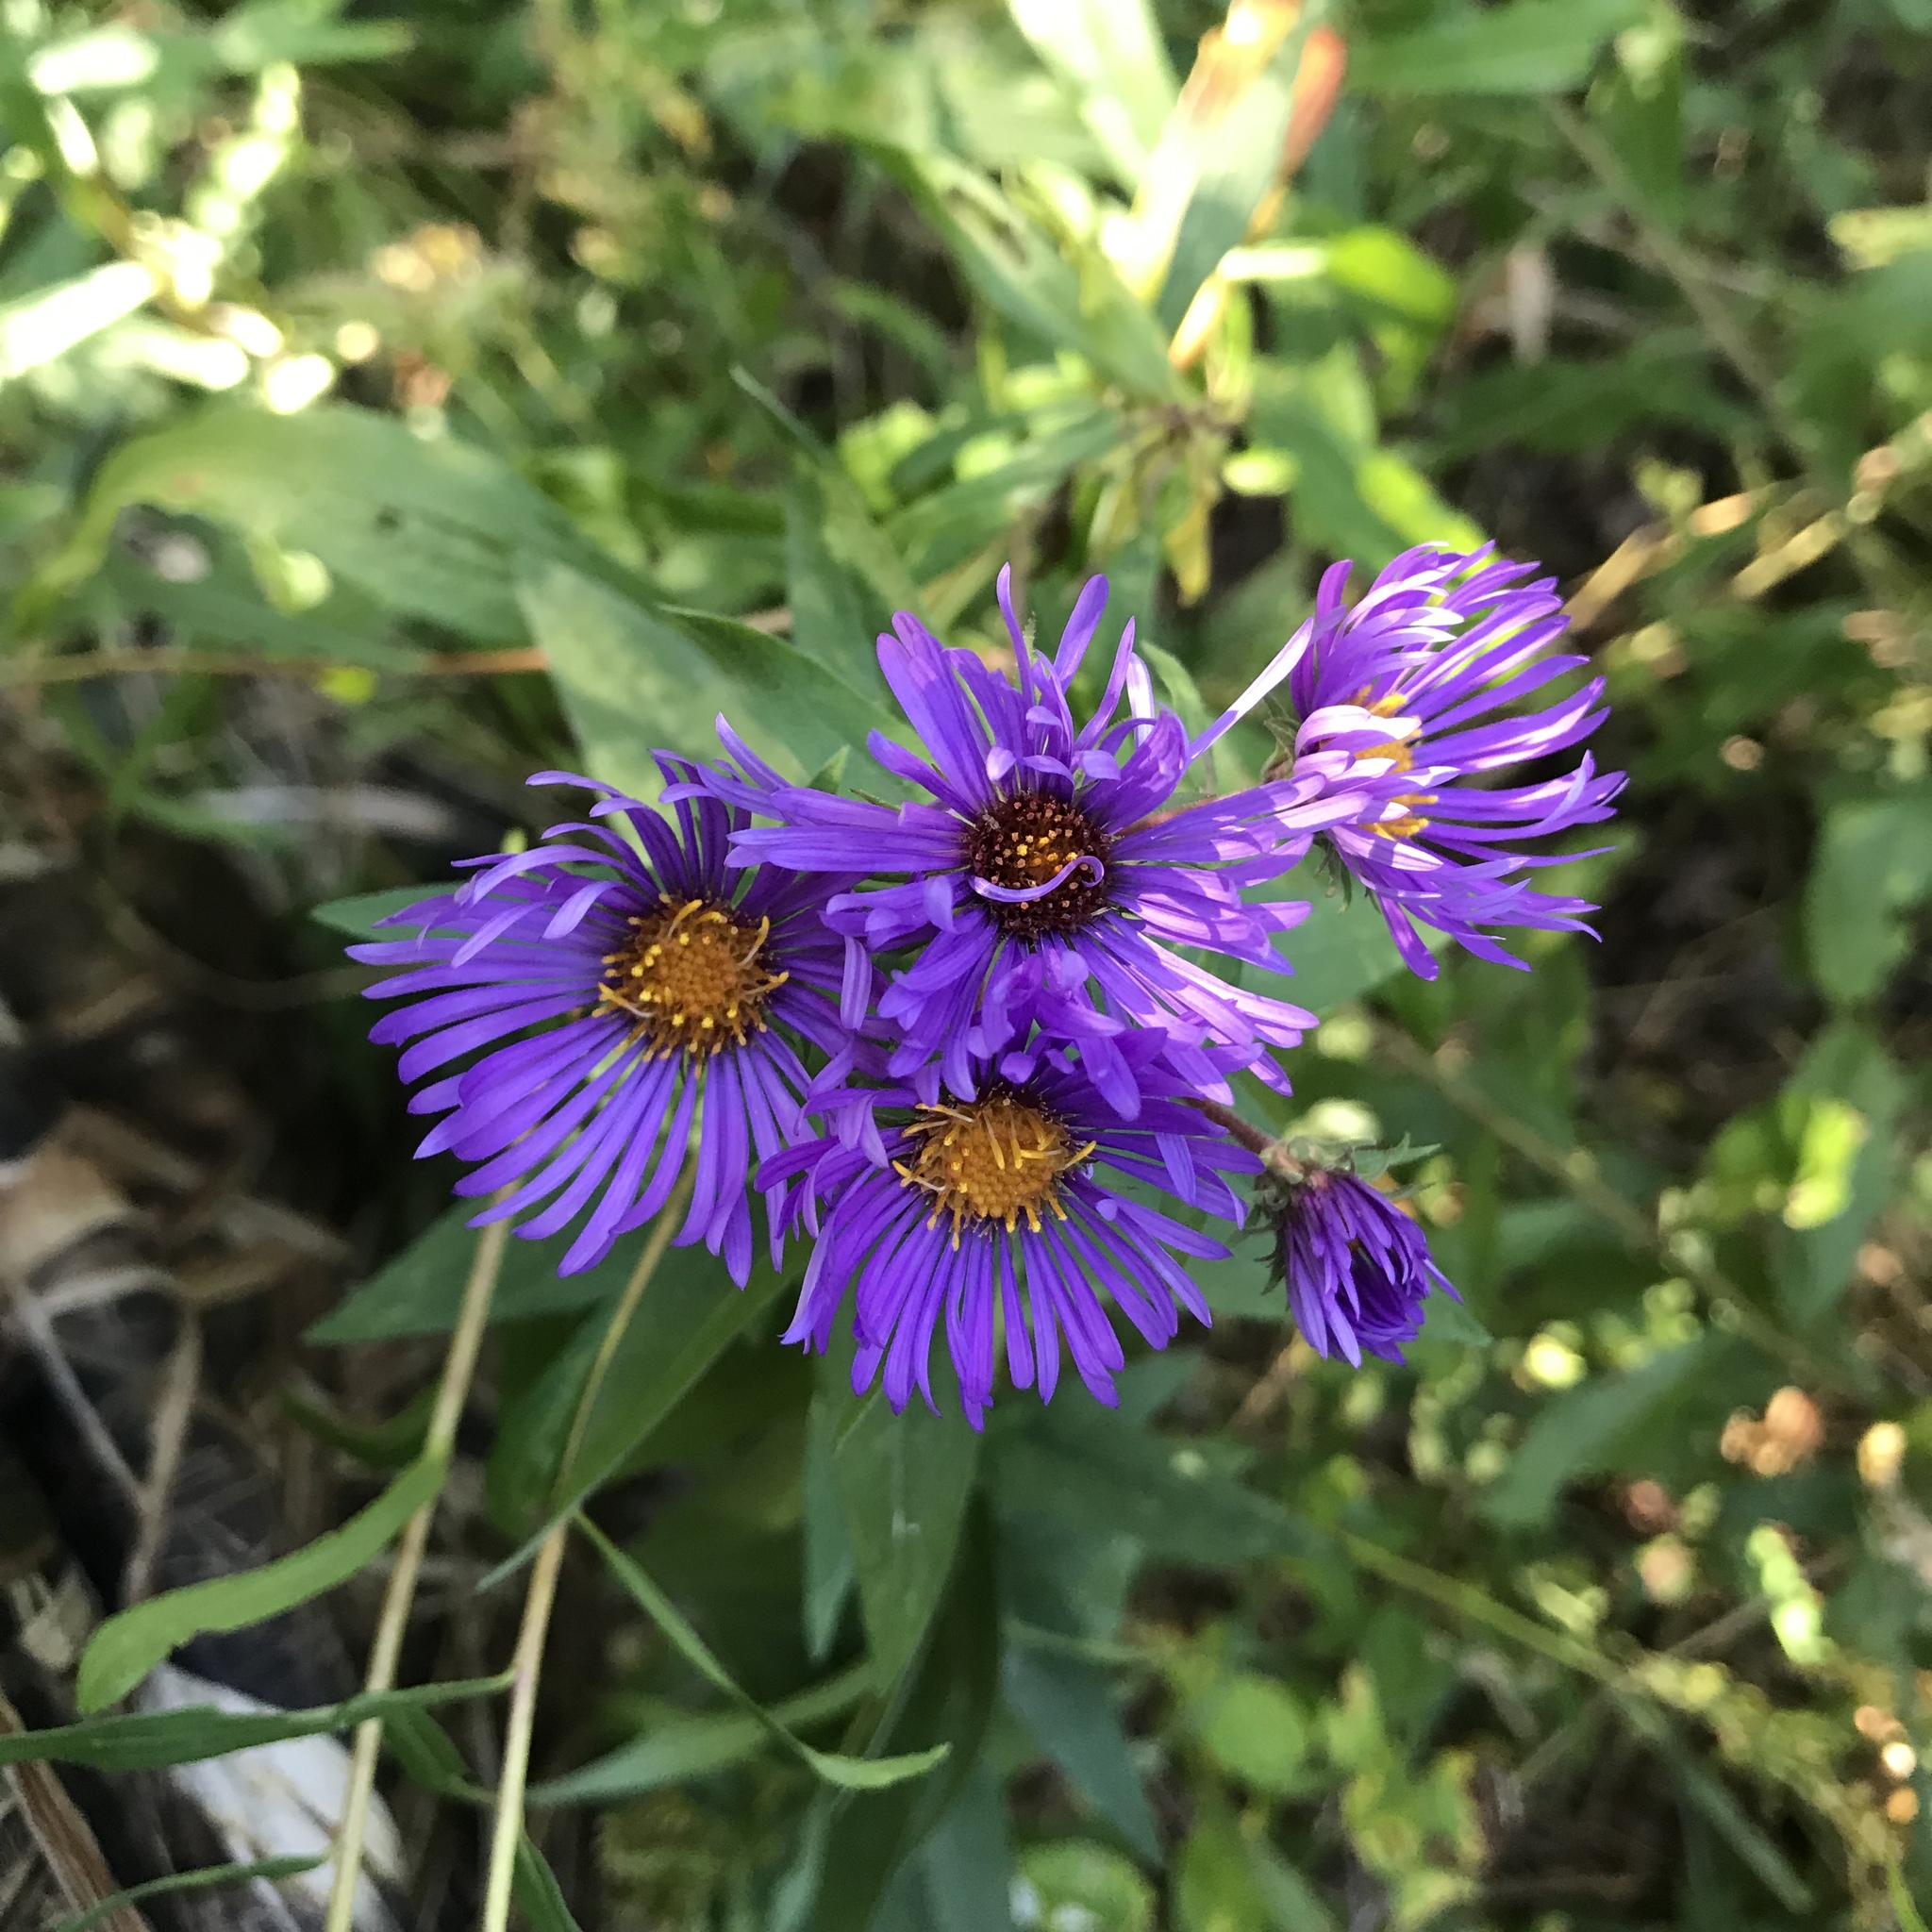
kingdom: Plantae
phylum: Tracheophyta
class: Magnoliopsida
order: Asterales
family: Asteraceae
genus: Symphyotrichum
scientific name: Symphyotrichum novae-angliae
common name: Michaelmas daisy
